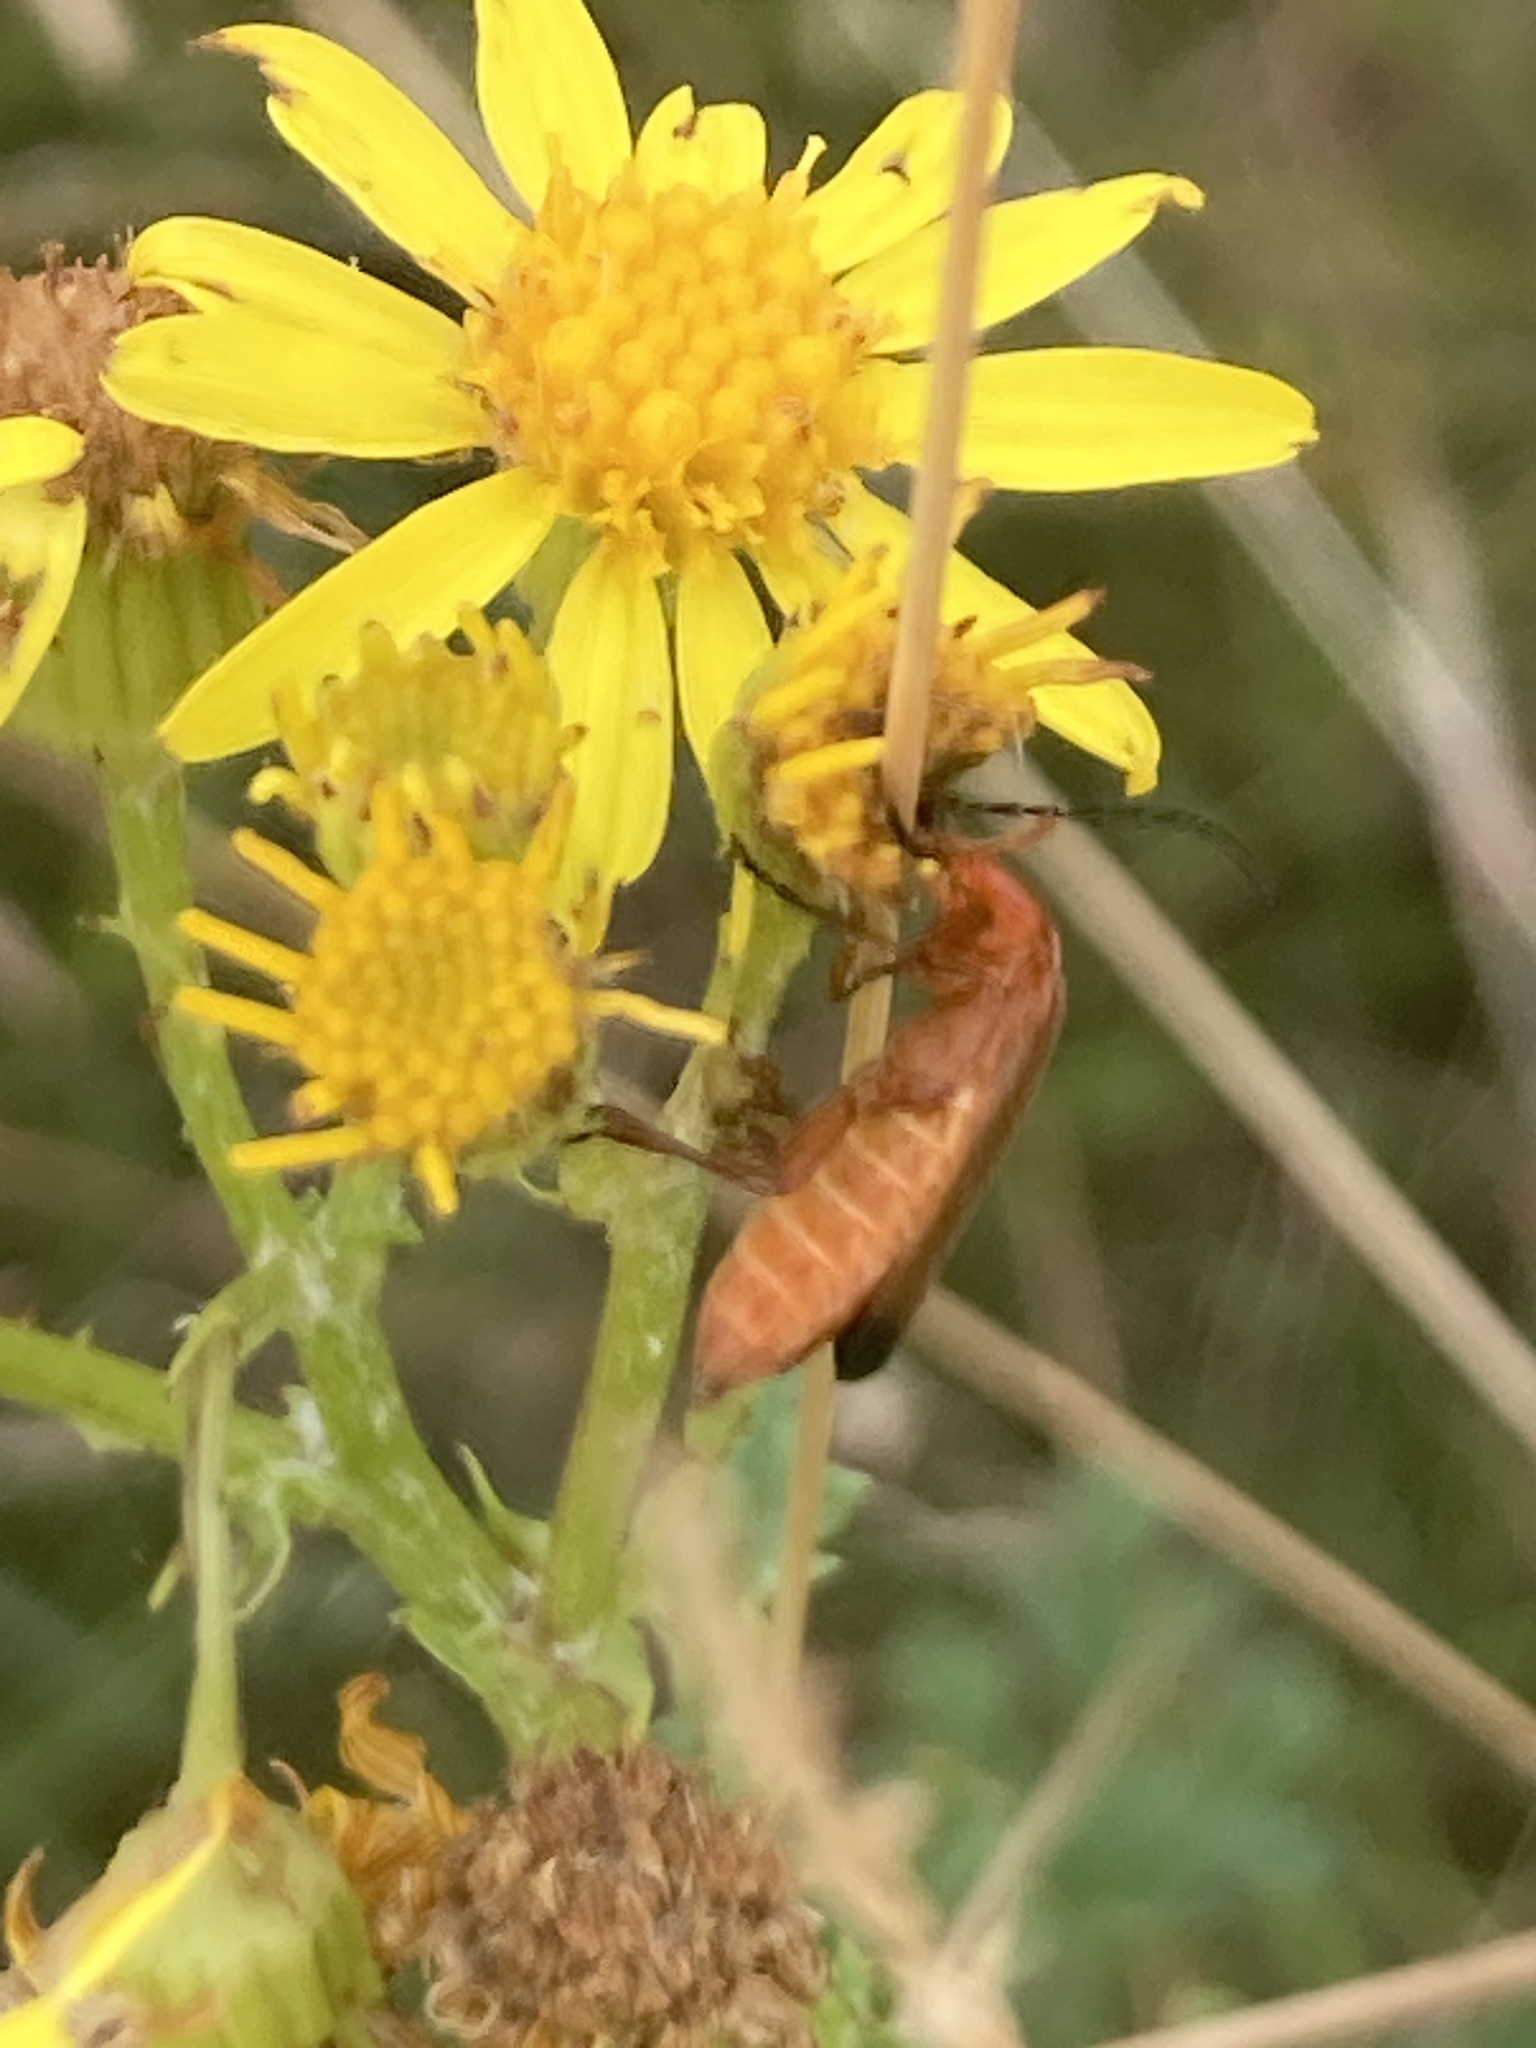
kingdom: Animalia
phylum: Arthropoda
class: Insecta
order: Coleoptera
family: Cantharidae
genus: Rhagonycha
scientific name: Rhagonycha fulva
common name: Common red soldier beetle
